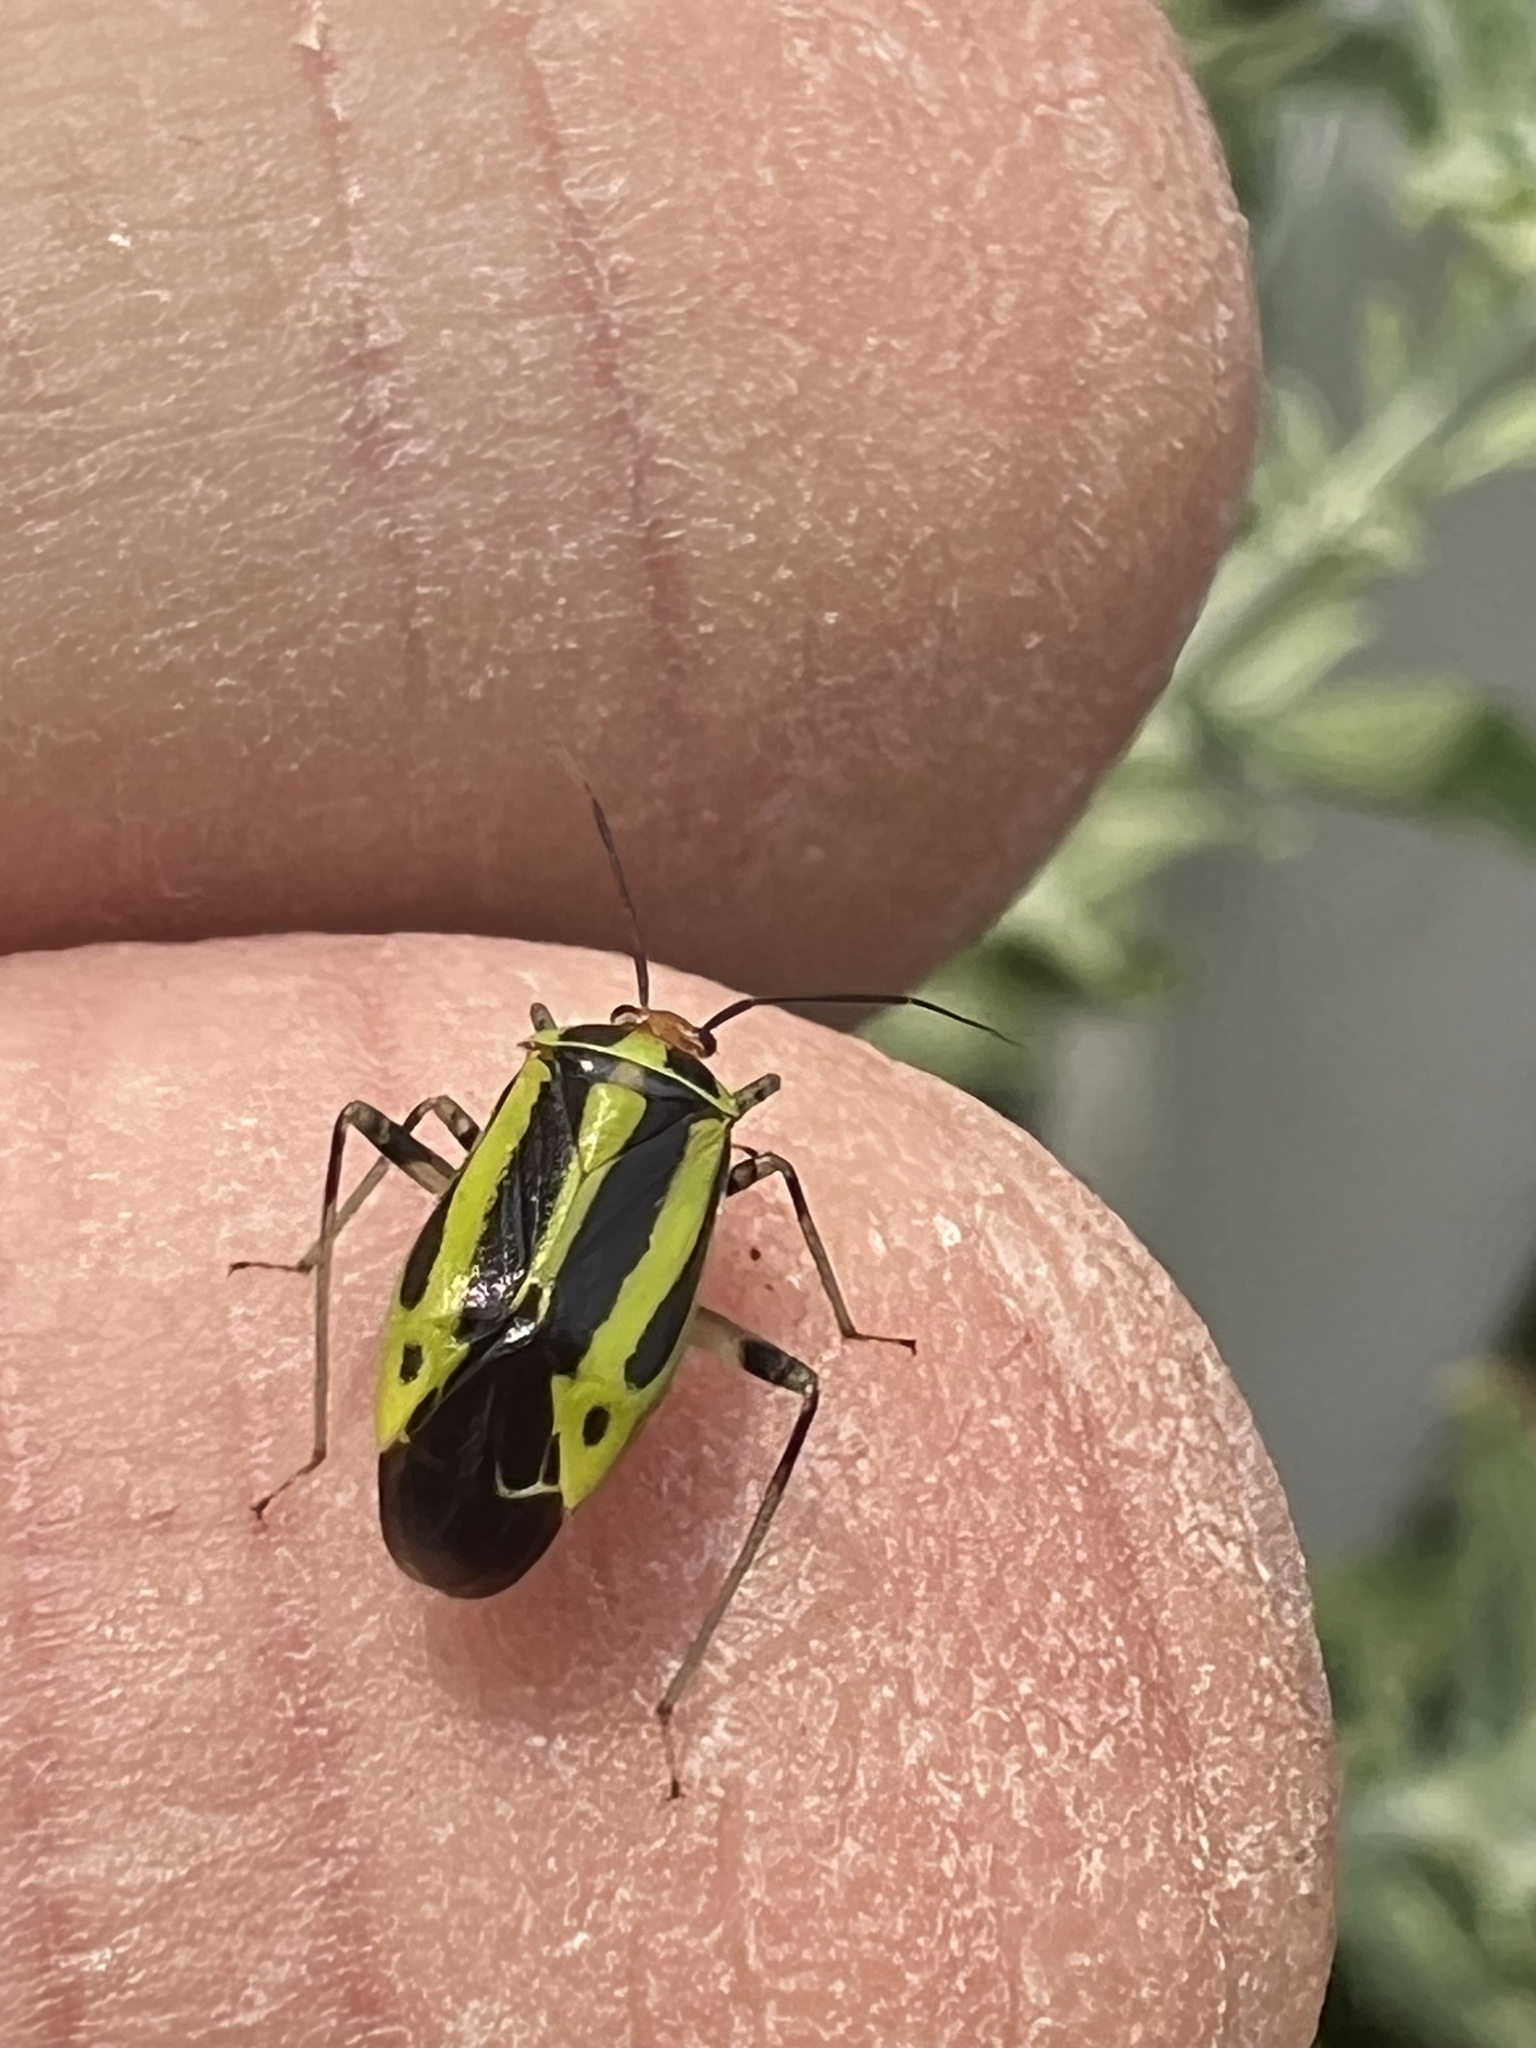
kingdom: Animalia
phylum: Arthropoda
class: Insecta
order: Hemiptera
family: Miridae
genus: Poecilocapsus
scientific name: Poecilocapsus lineatus
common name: Four-lined plant bug
